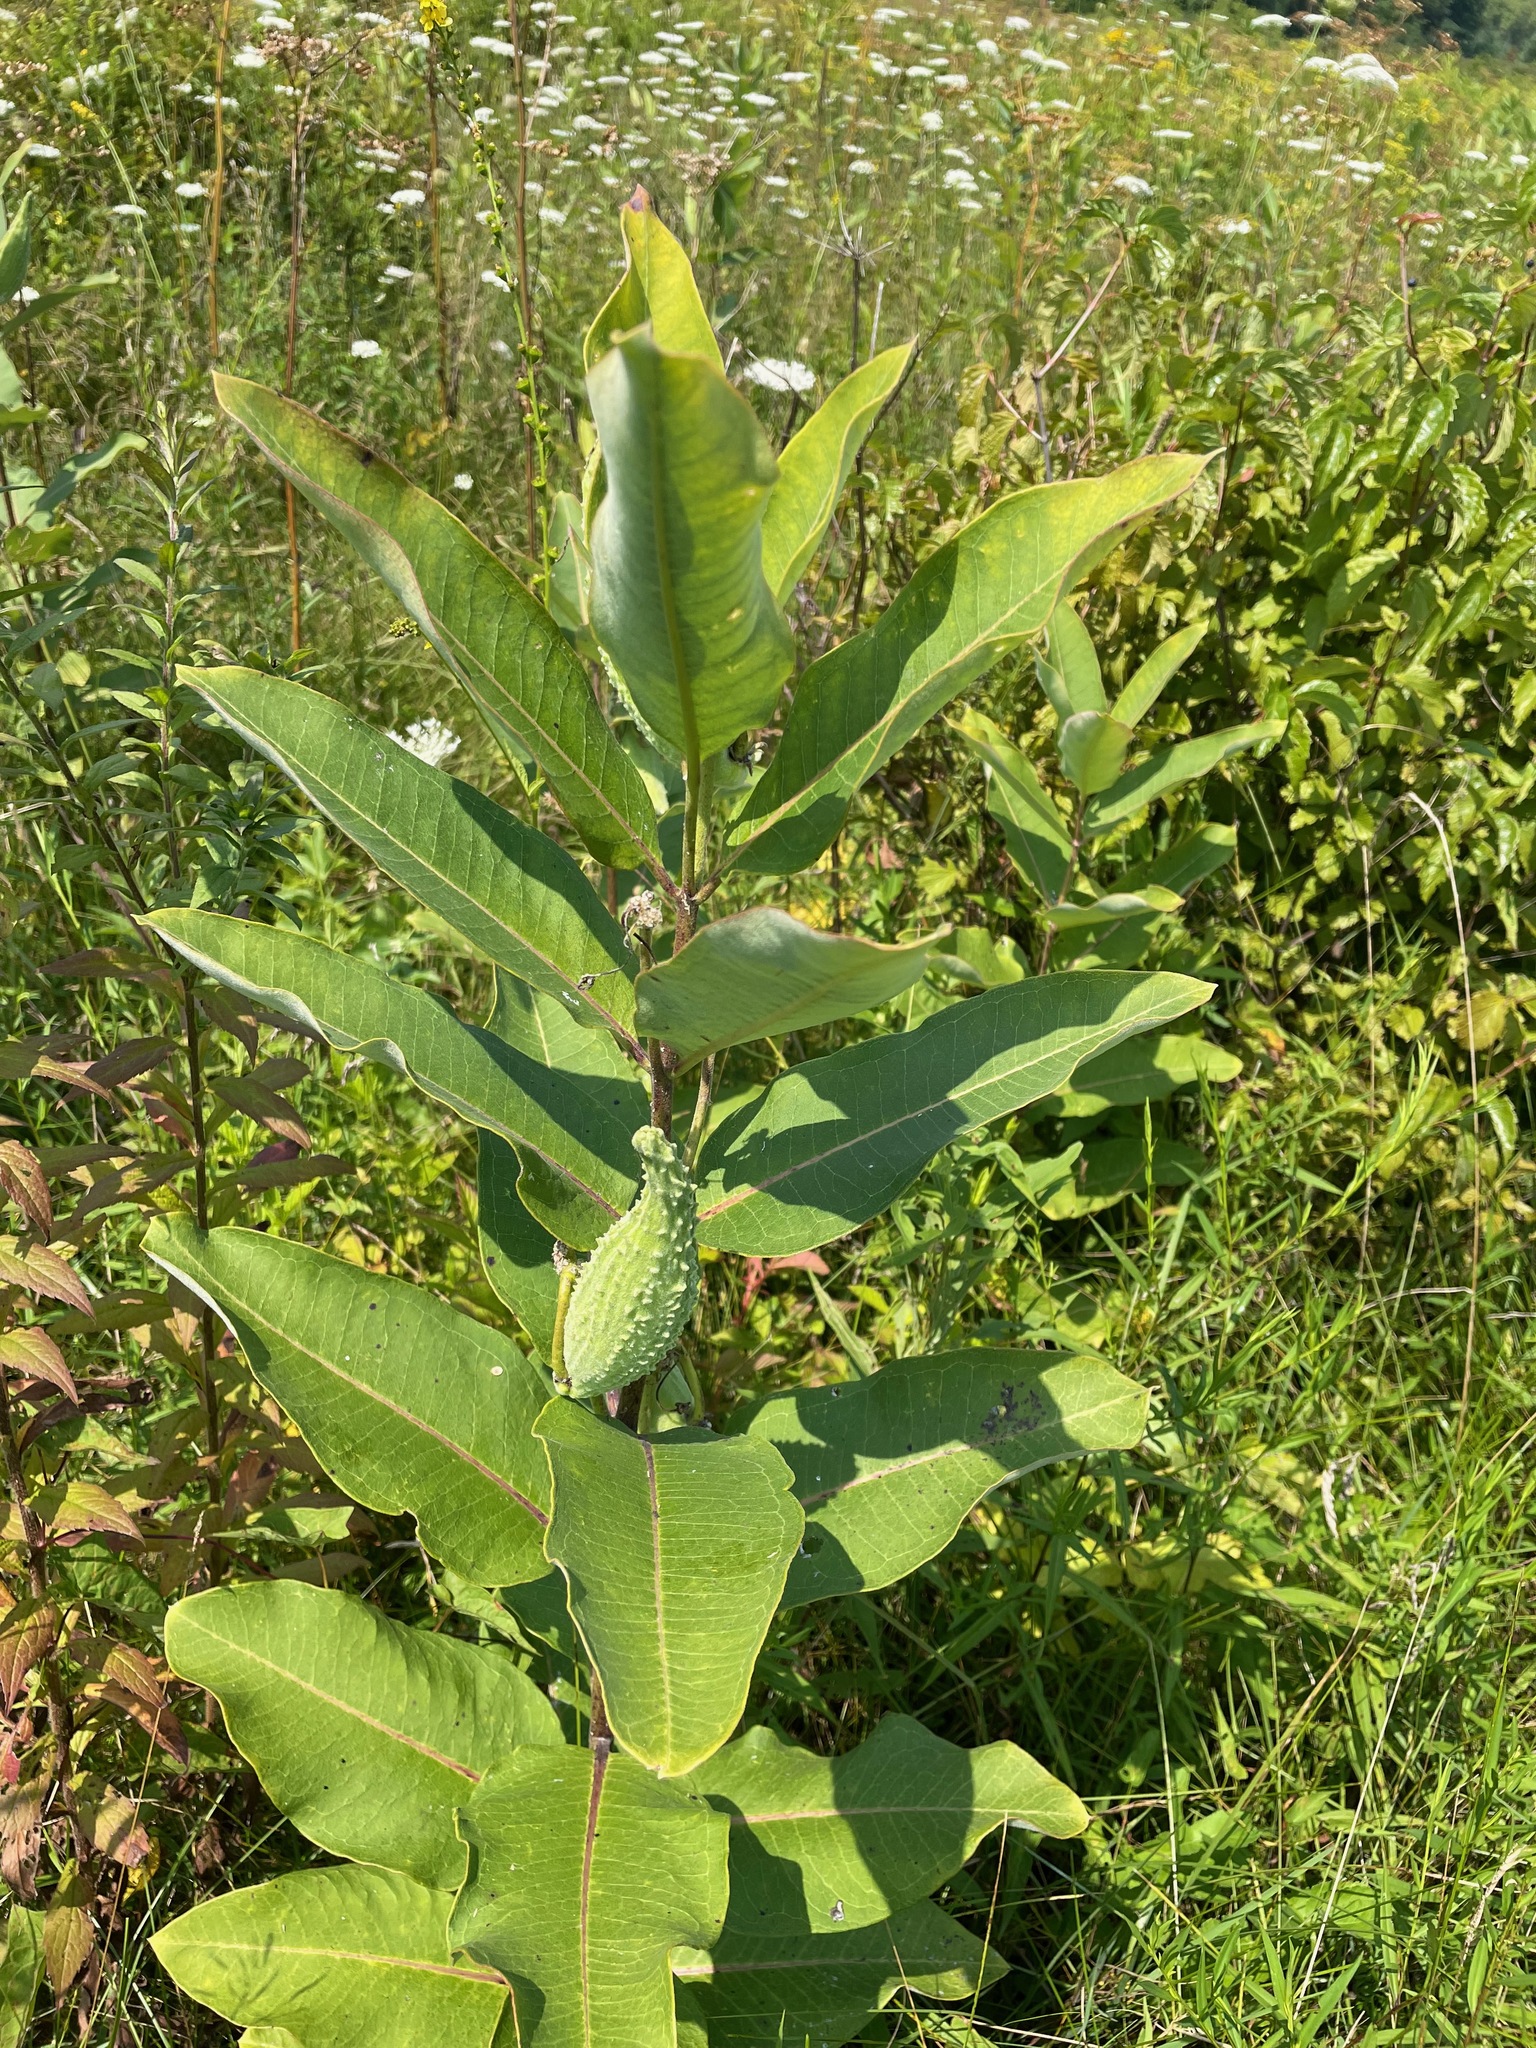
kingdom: Plantae
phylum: Tracheophyta
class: Magnoliopsida
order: Gentianales
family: Apocynaceae
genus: Asclepias
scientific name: Asclepias syriaca
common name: Common milkweed
